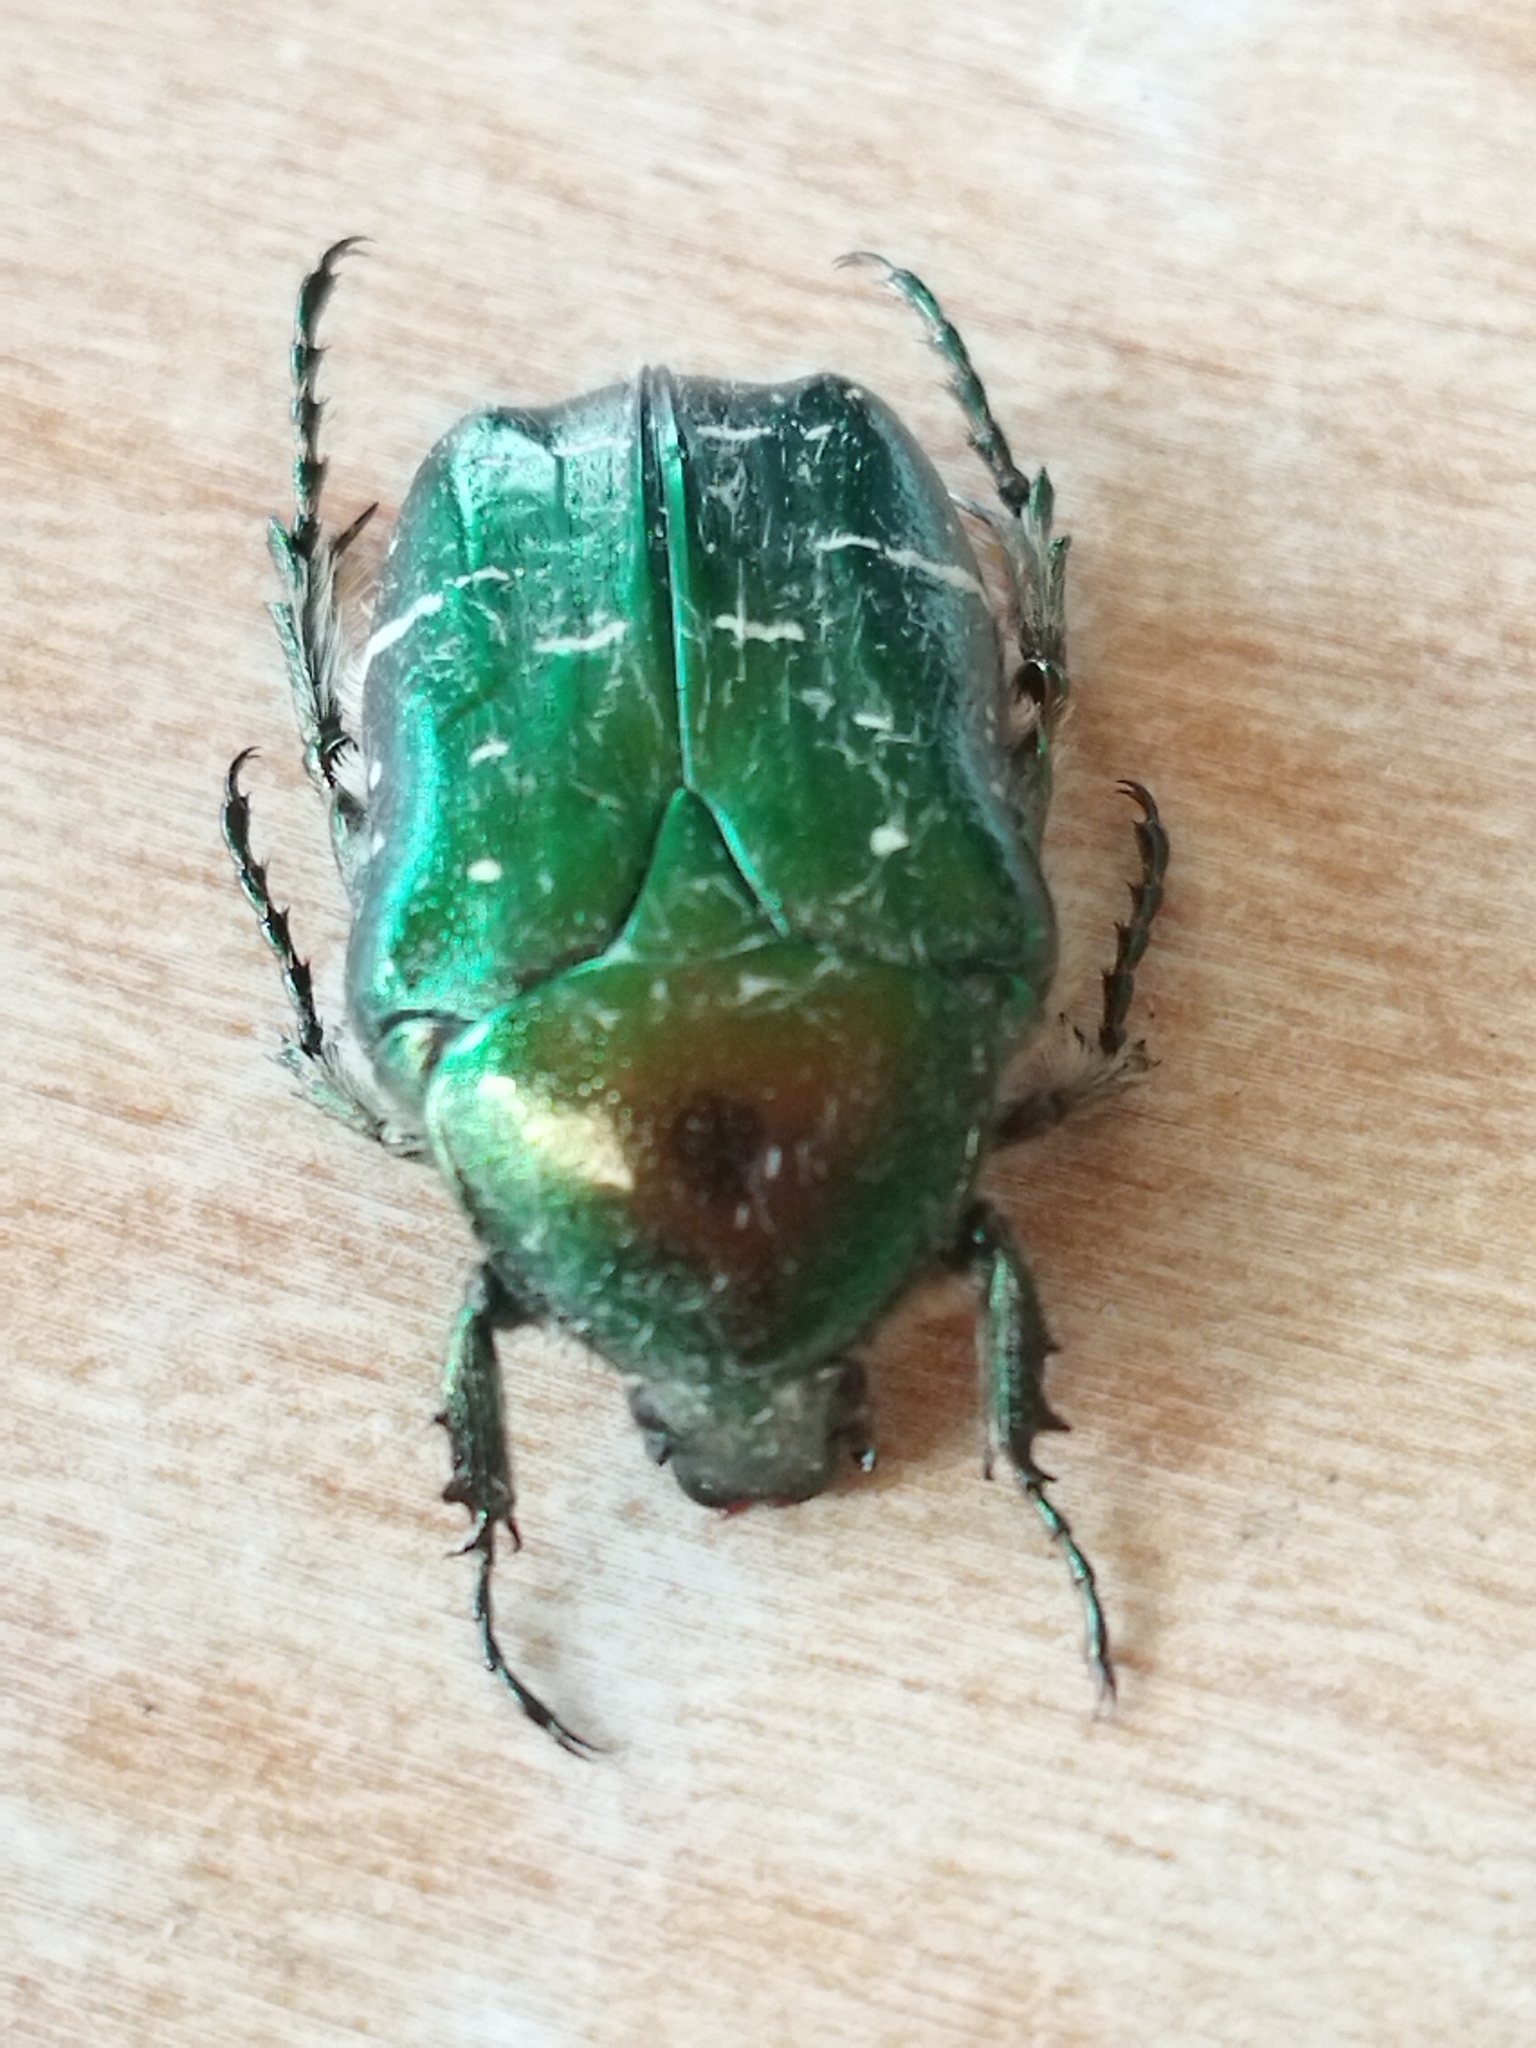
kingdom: Animalia
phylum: Arthropoda
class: Insecta
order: Coleoptera
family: Scarabaeidae
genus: Cetonia
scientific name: Cetonia aurata
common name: Rose chafer
